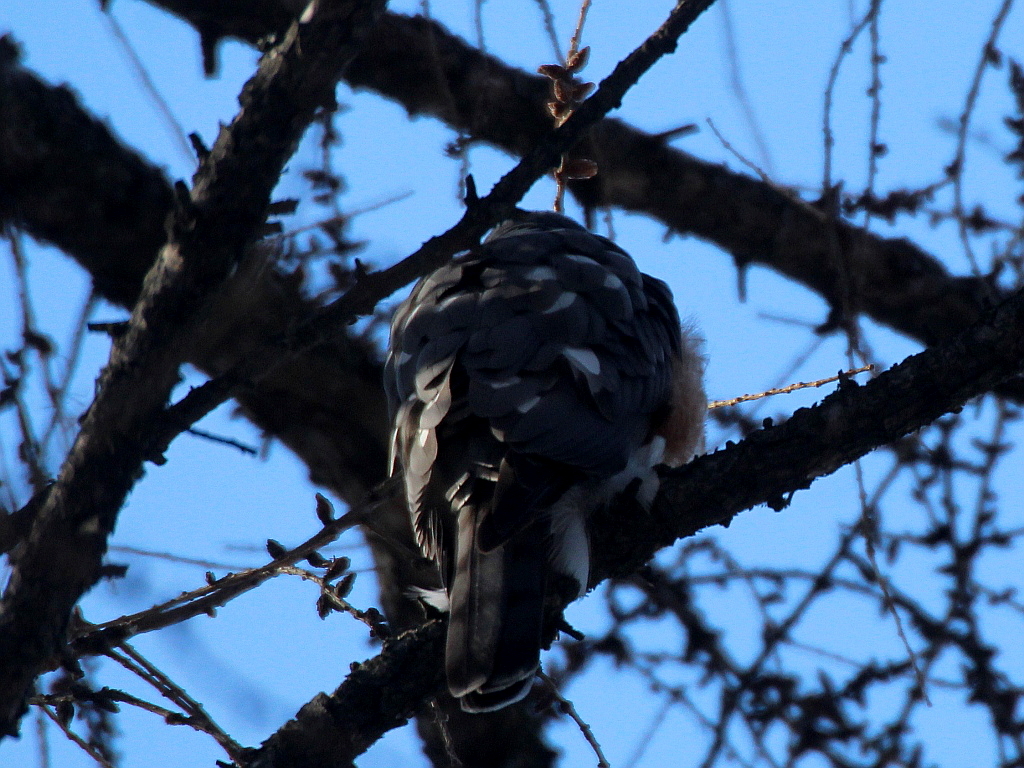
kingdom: Animalia
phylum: Chordata
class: Aves
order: Accipitriformes
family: Accipitridae
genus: Accipiter
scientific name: Accipiter nisus
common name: Eurasian sparrowhawk
